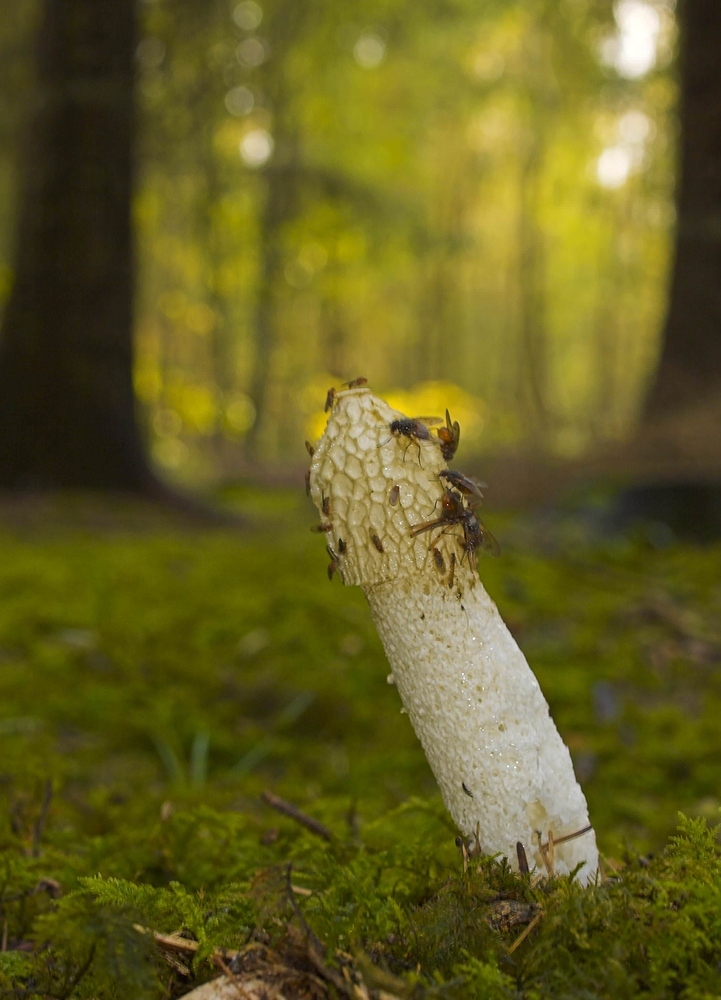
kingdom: Fungi
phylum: Basidiomycota
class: Agaricomycetes
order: Phallales
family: Phallaceae
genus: Phallus
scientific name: Phallus impudicus
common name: Common stinkhorn
